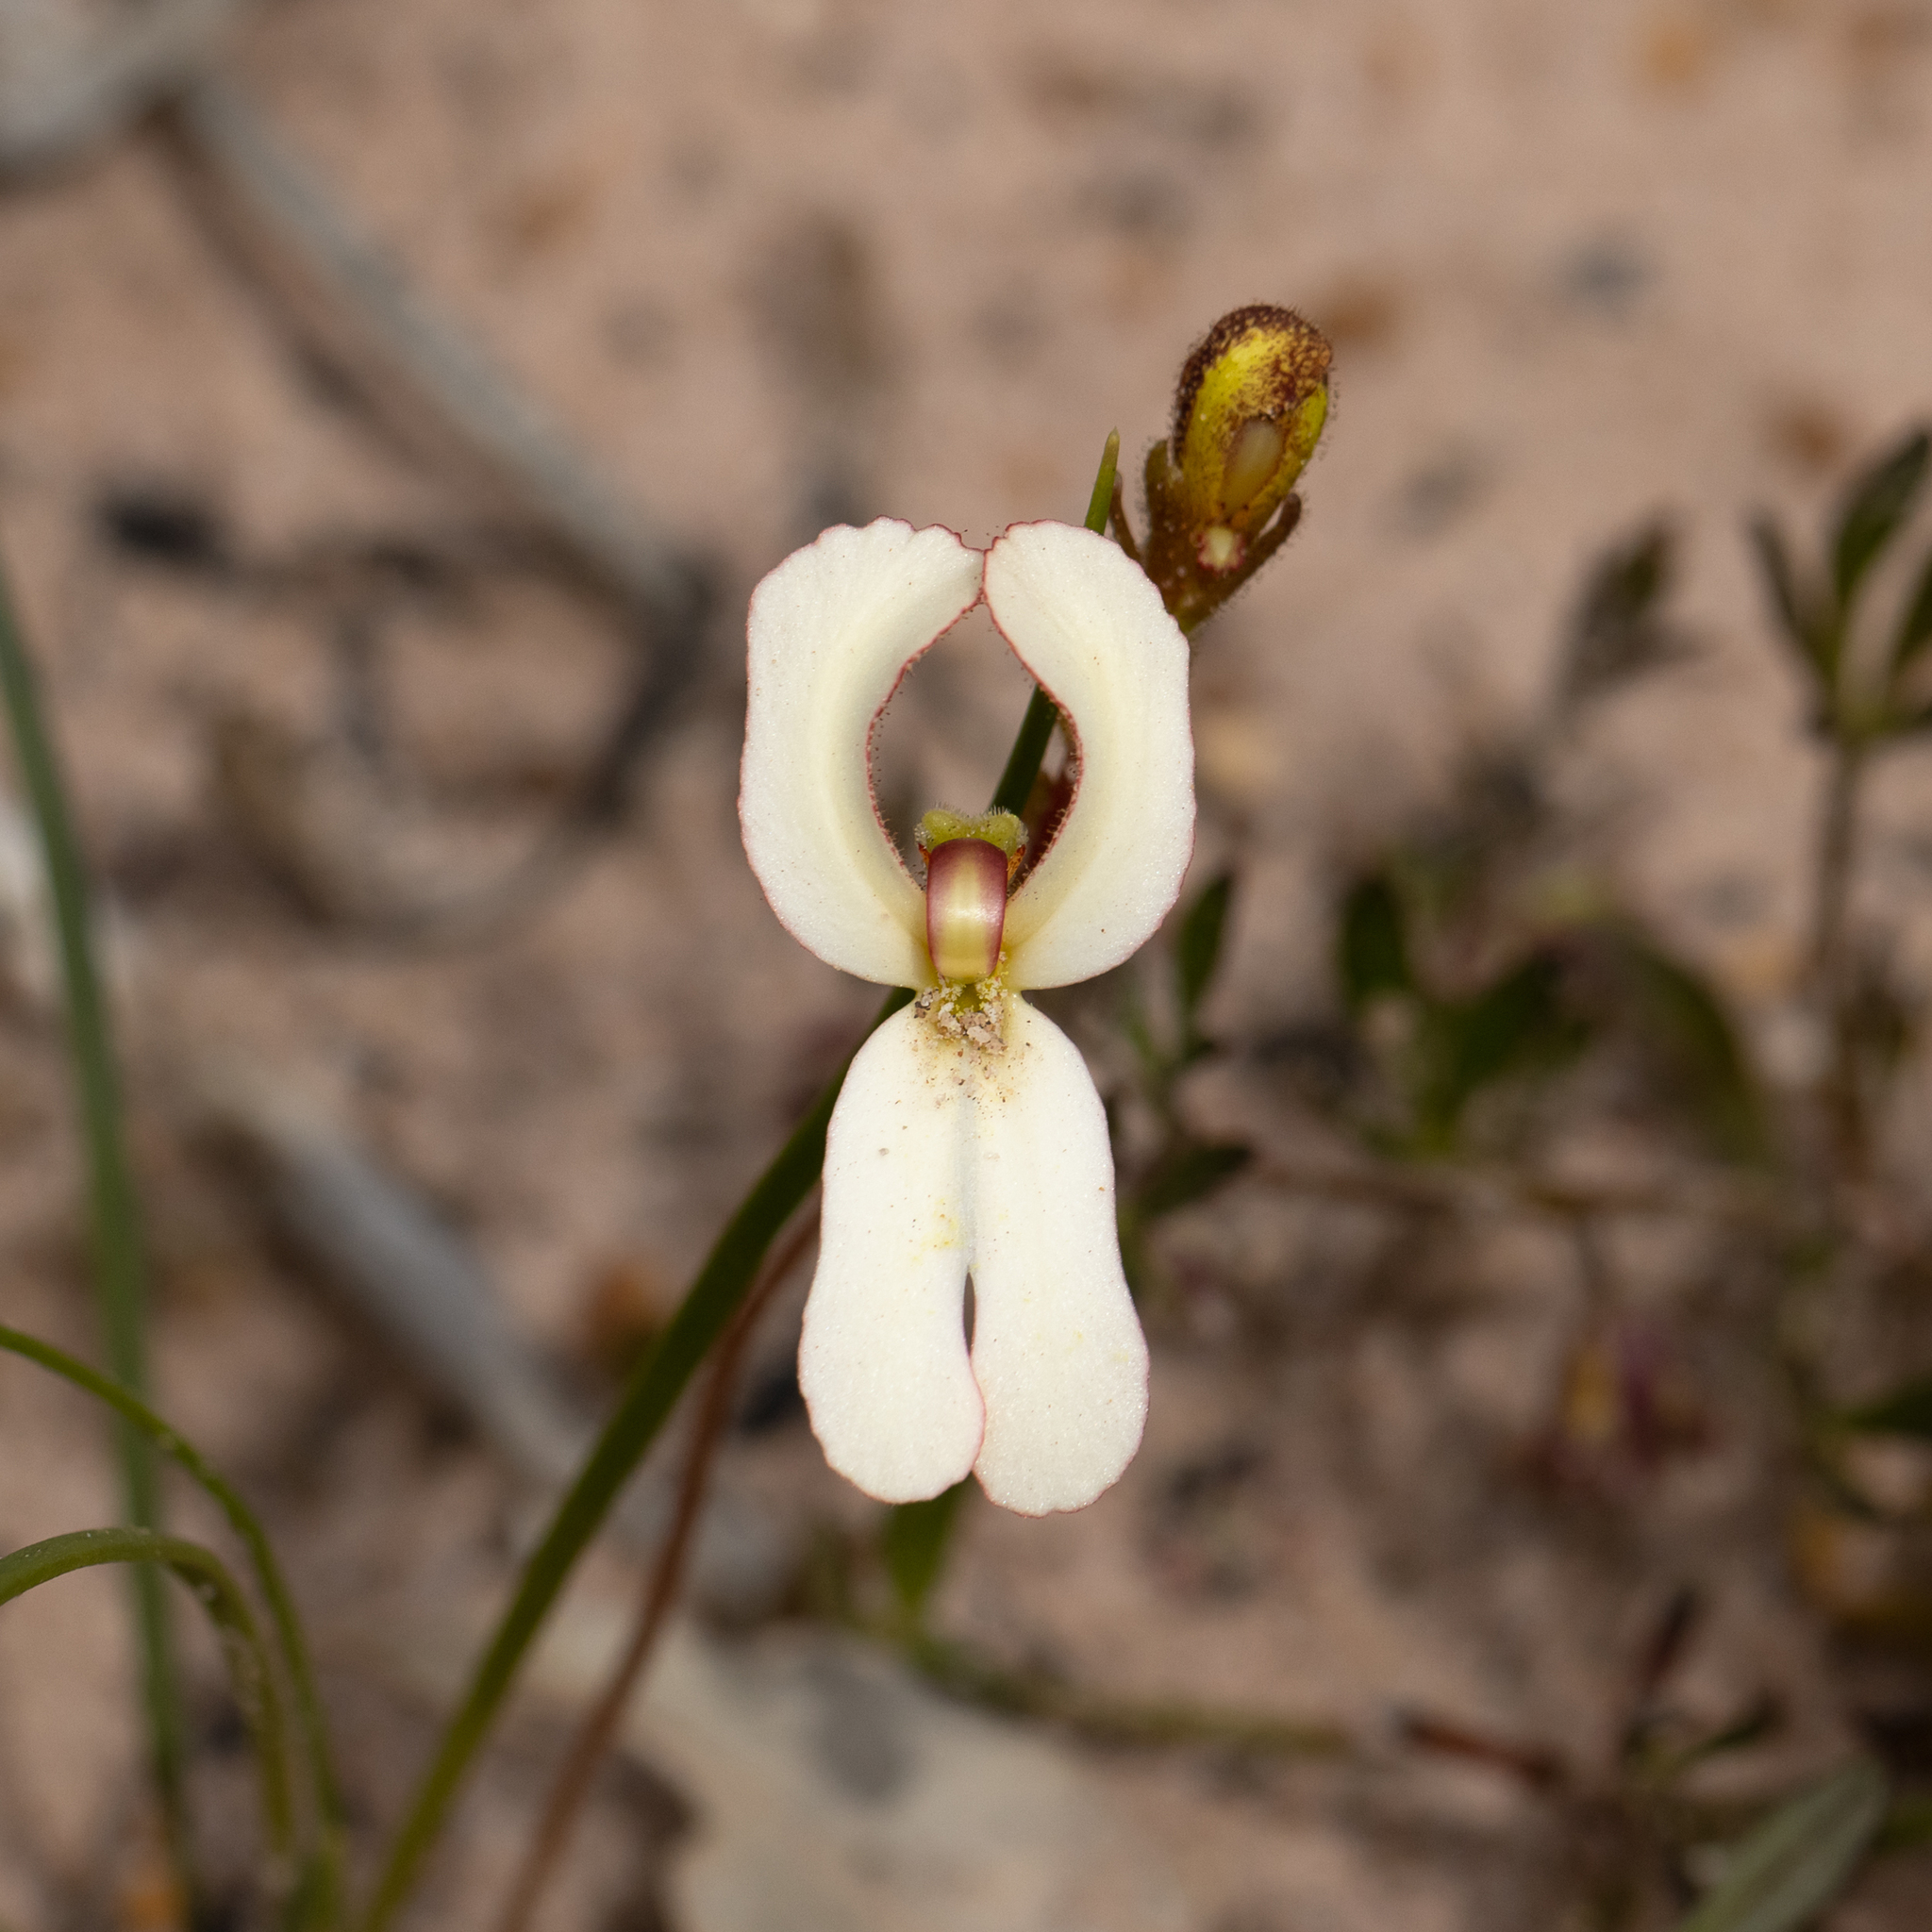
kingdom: Plantae
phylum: Tracheophyta
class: Magnoliopsida
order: Asterales
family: Stylidiaceae
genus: Stylidium
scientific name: Stylidium schoenoides
